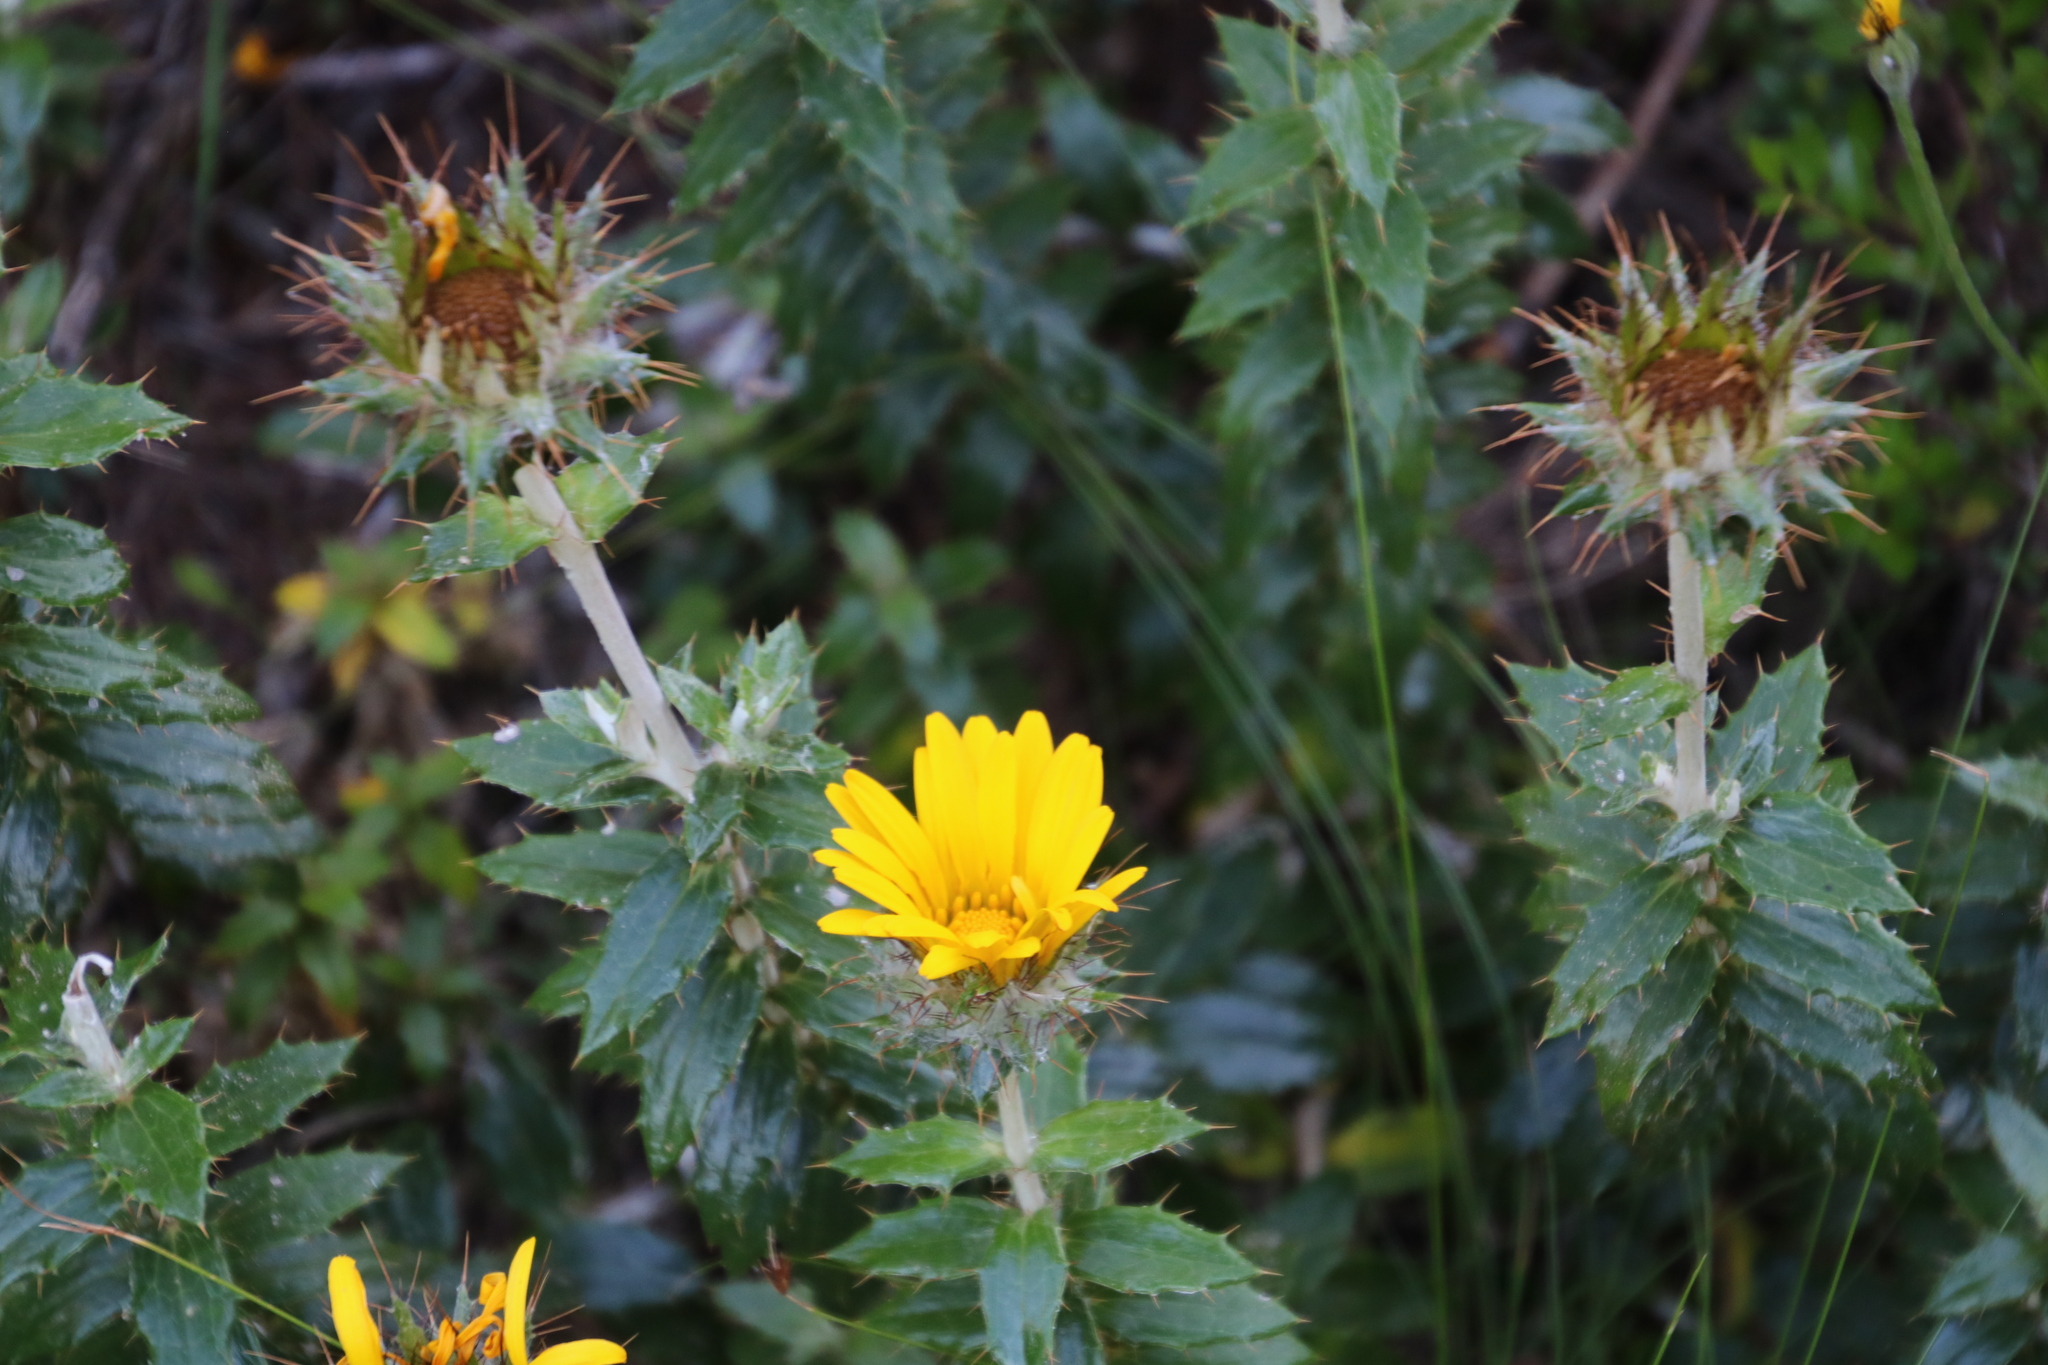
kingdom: Plantae
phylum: Tracheophyta
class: Magnoliopsida
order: Asterales
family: Asteraceae
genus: Berkheya
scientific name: Berkheya barbata
